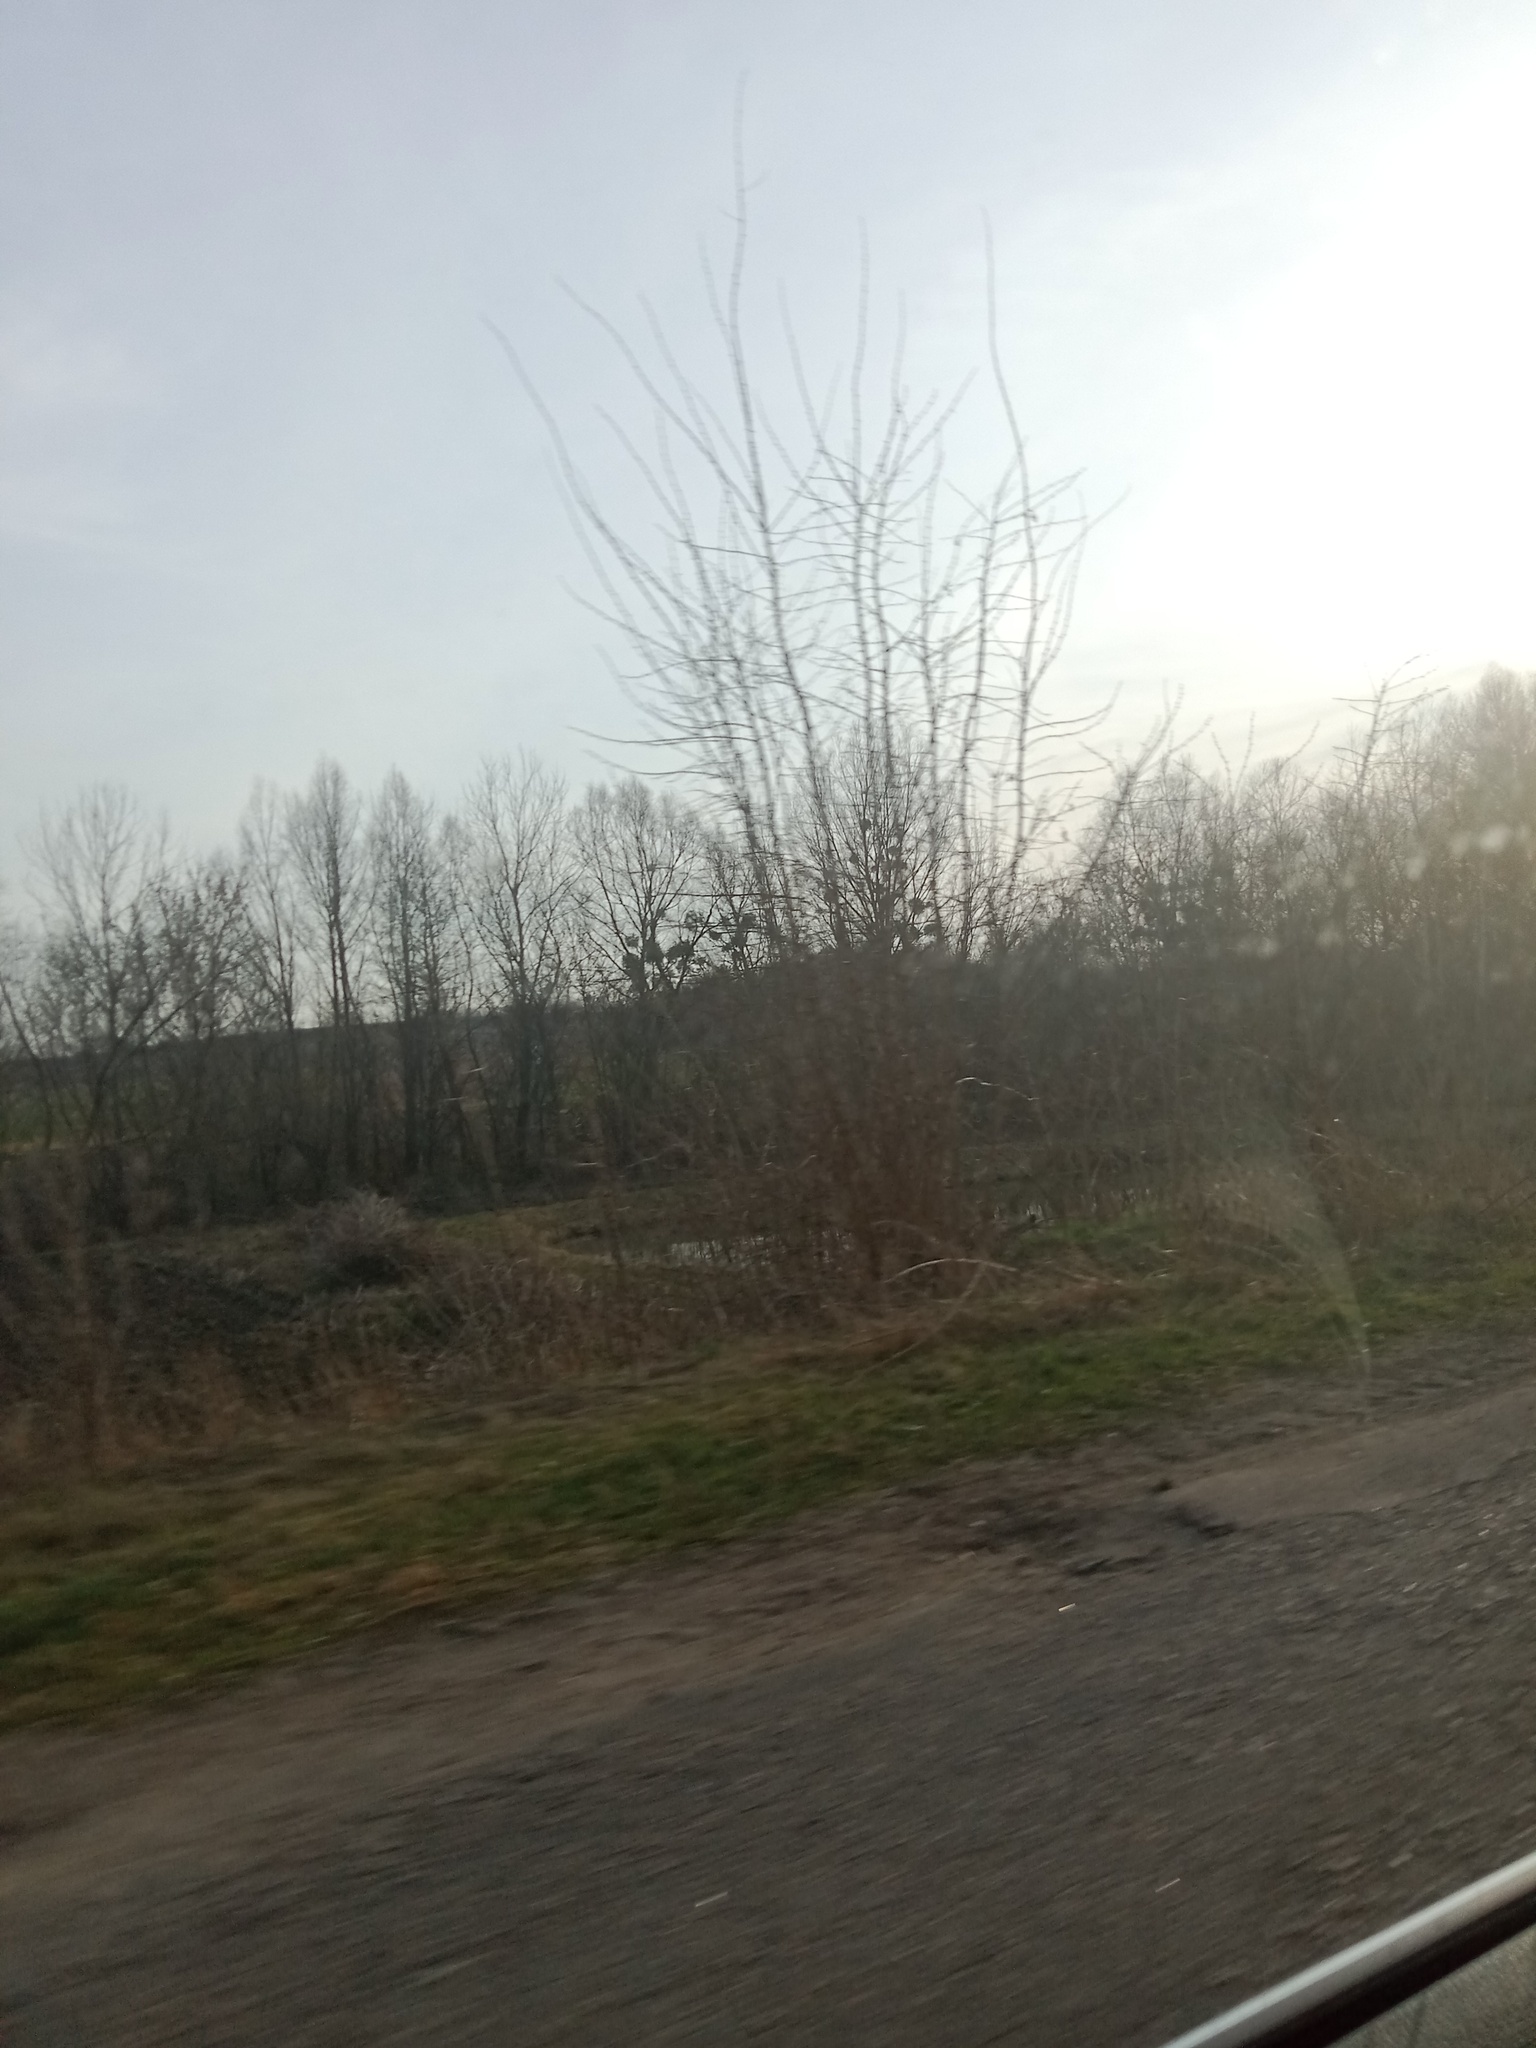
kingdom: Plantae
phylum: Tracheophyta
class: Magnoliopsida
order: Santalales
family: Viscaceae
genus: Viscum
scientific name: Viscum album
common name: Mistletoe
